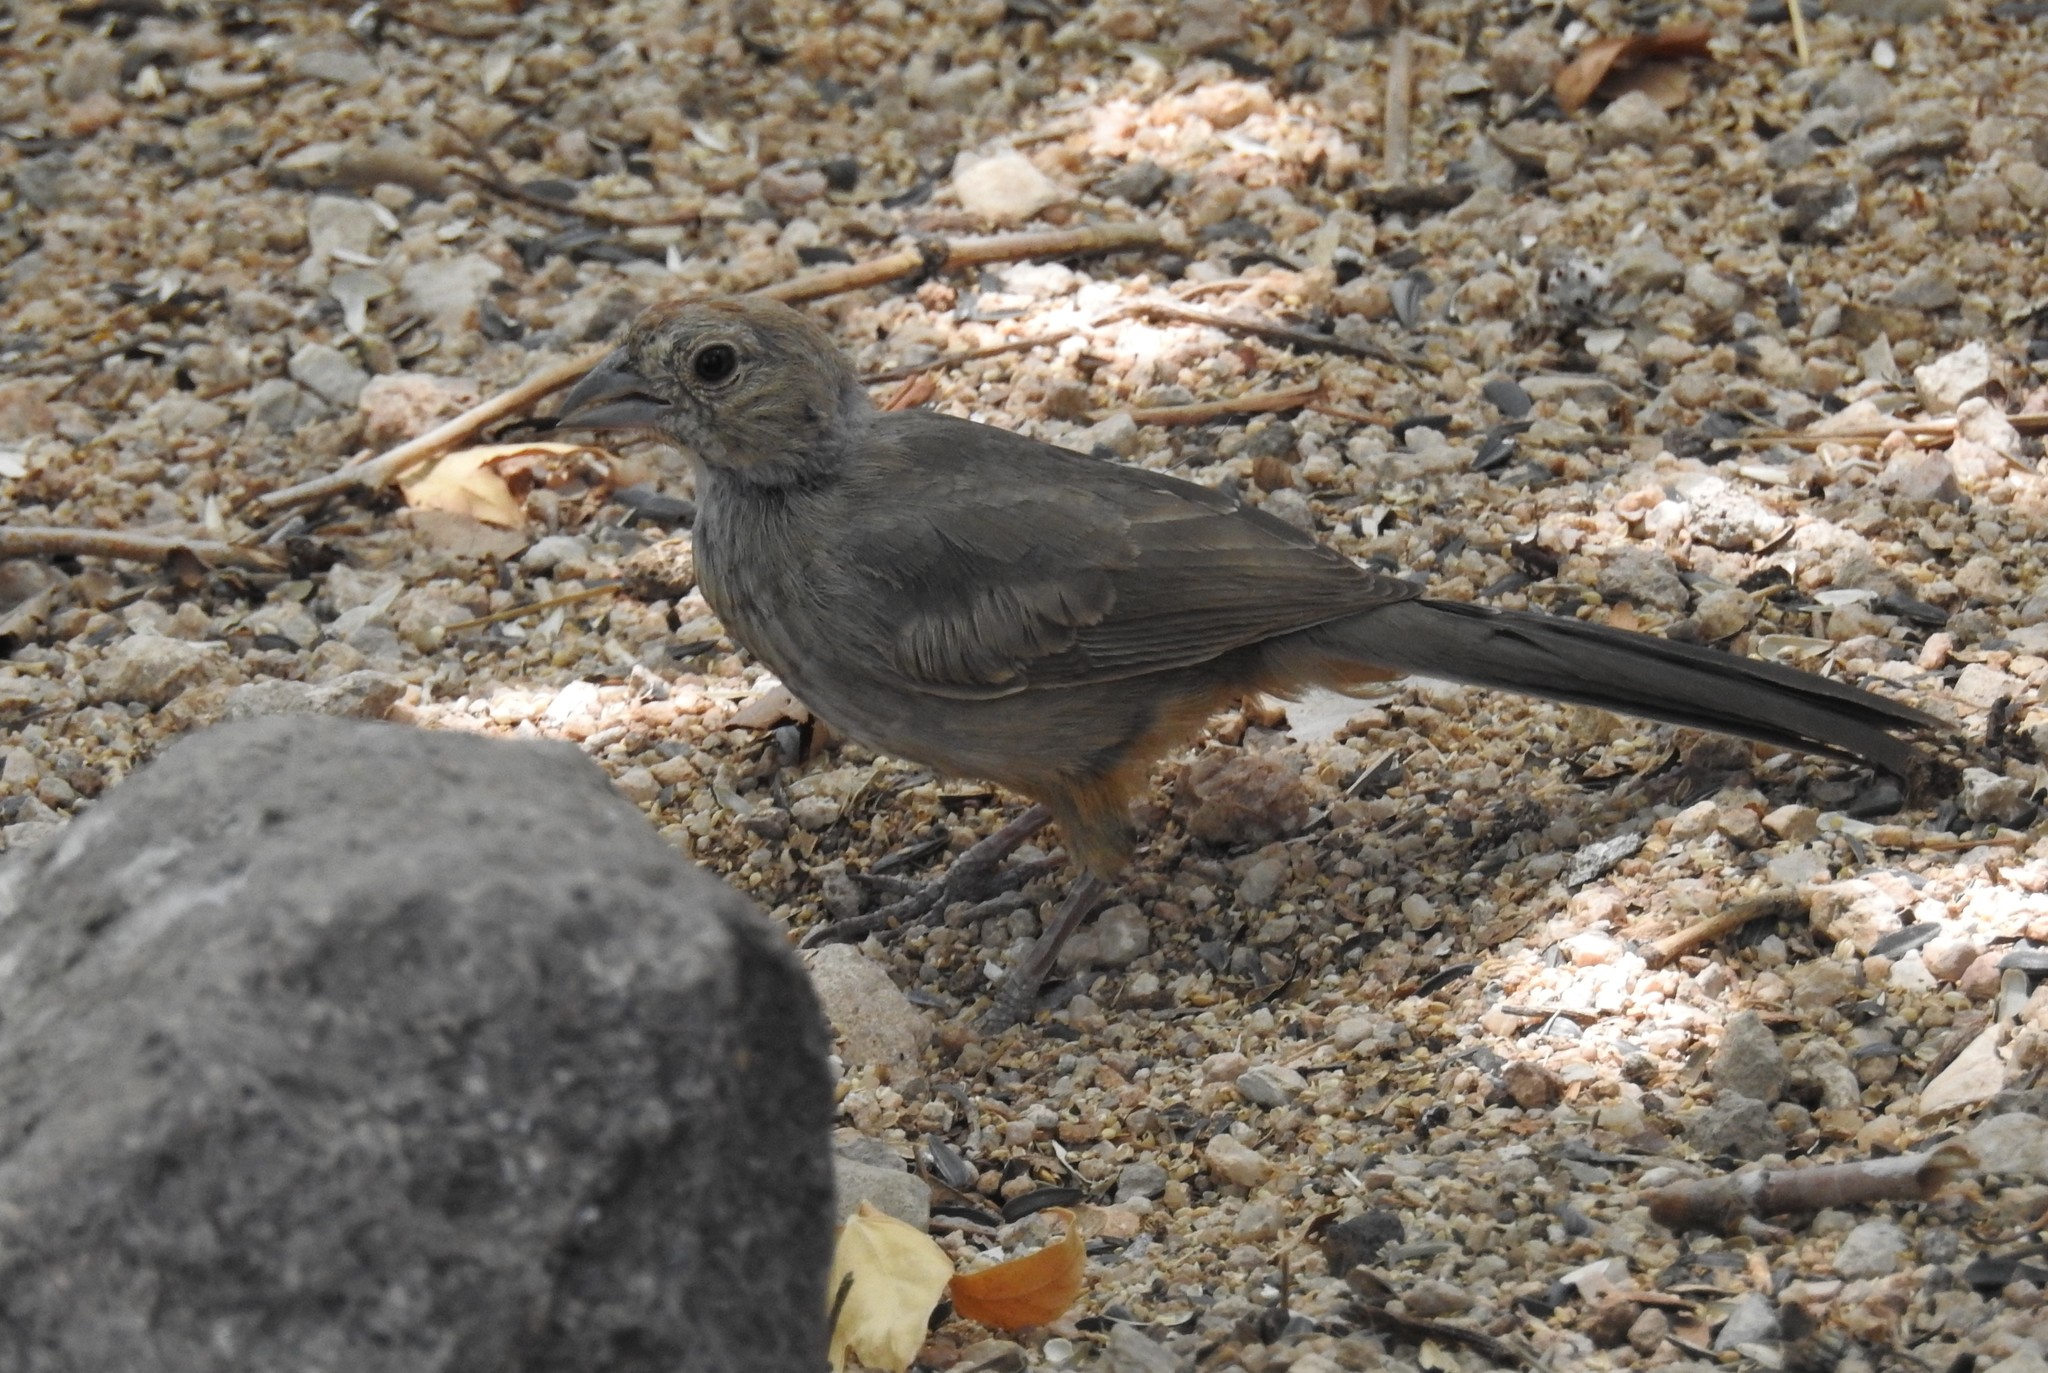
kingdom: Animalia
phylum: Chordata
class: Aves
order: Passeriformes
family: Passerellidae
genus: Melozone
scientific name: Melozone fusca
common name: Canyon towhee
